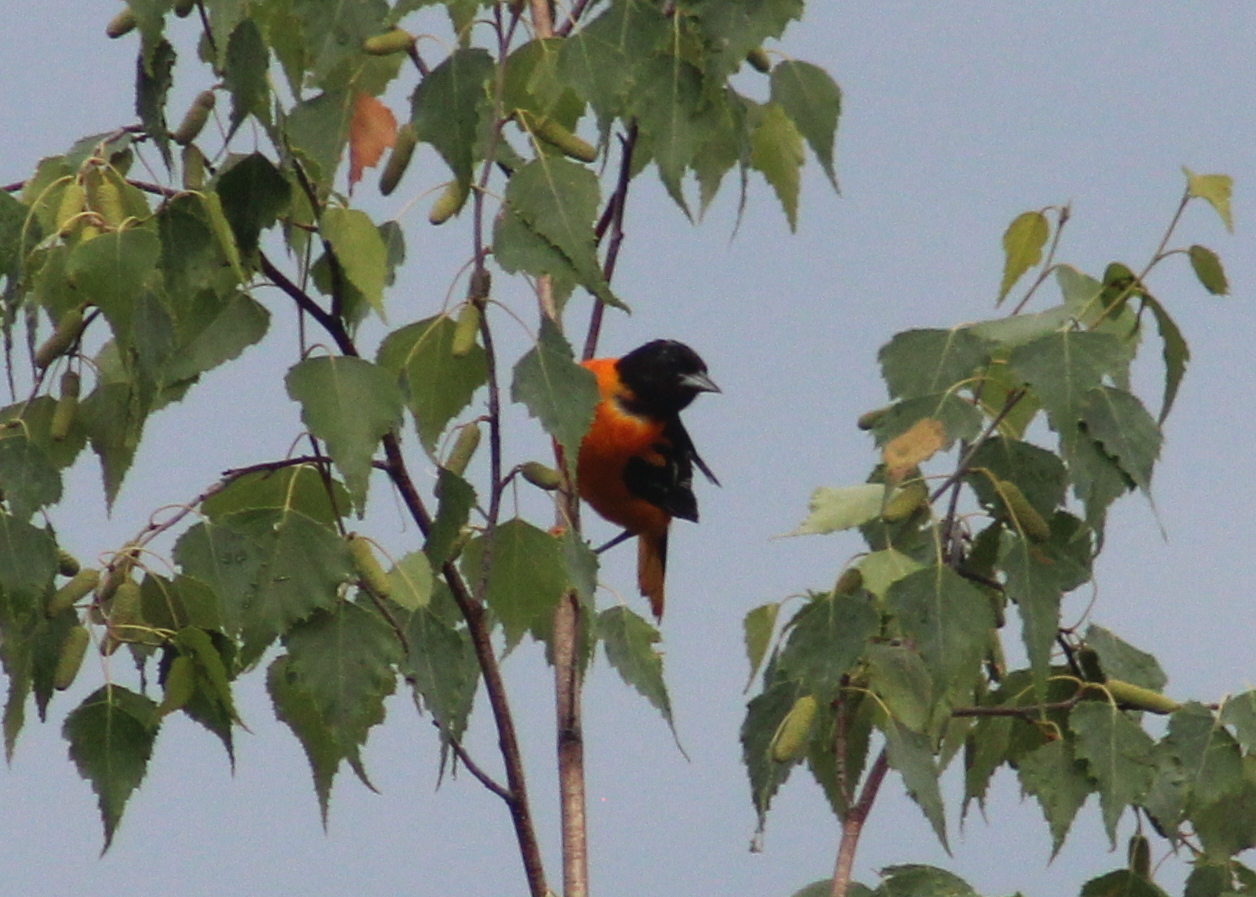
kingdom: Animalia
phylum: Chordata
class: Aves
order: Passeriformes
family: Icteridae
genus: Icterus
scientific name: Icterus galbula
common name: Baltimore oriole
